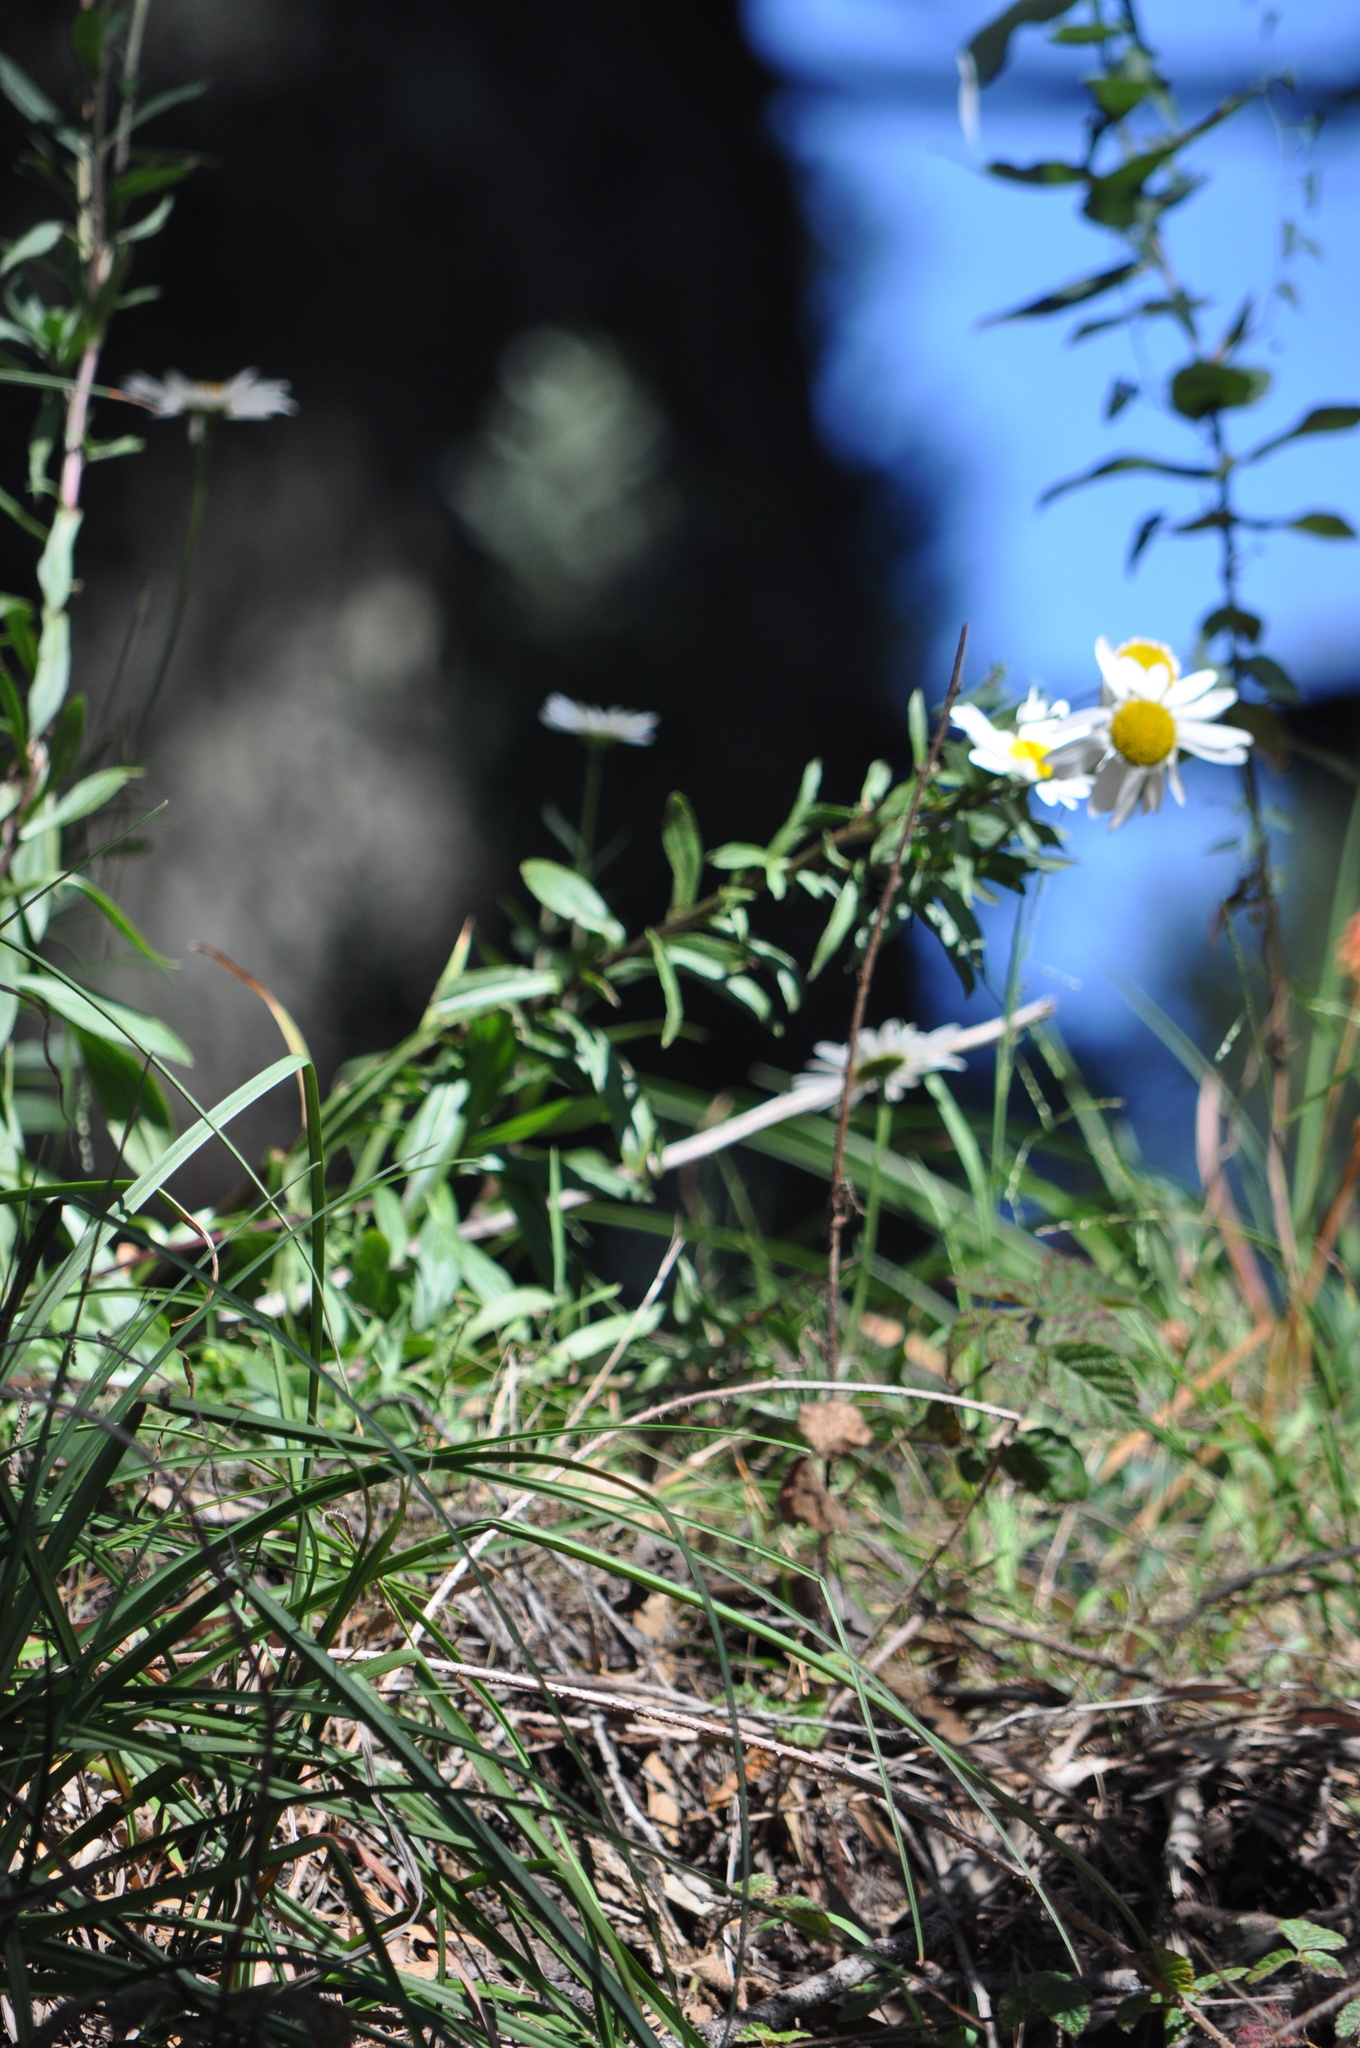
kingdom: Plantae
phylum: Tracheophyta
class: Magnoliopsida
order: Asterales
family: Asteraceae
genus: Erigeron
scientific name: Erigeron karvinskianus
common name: Mexican fleabane
